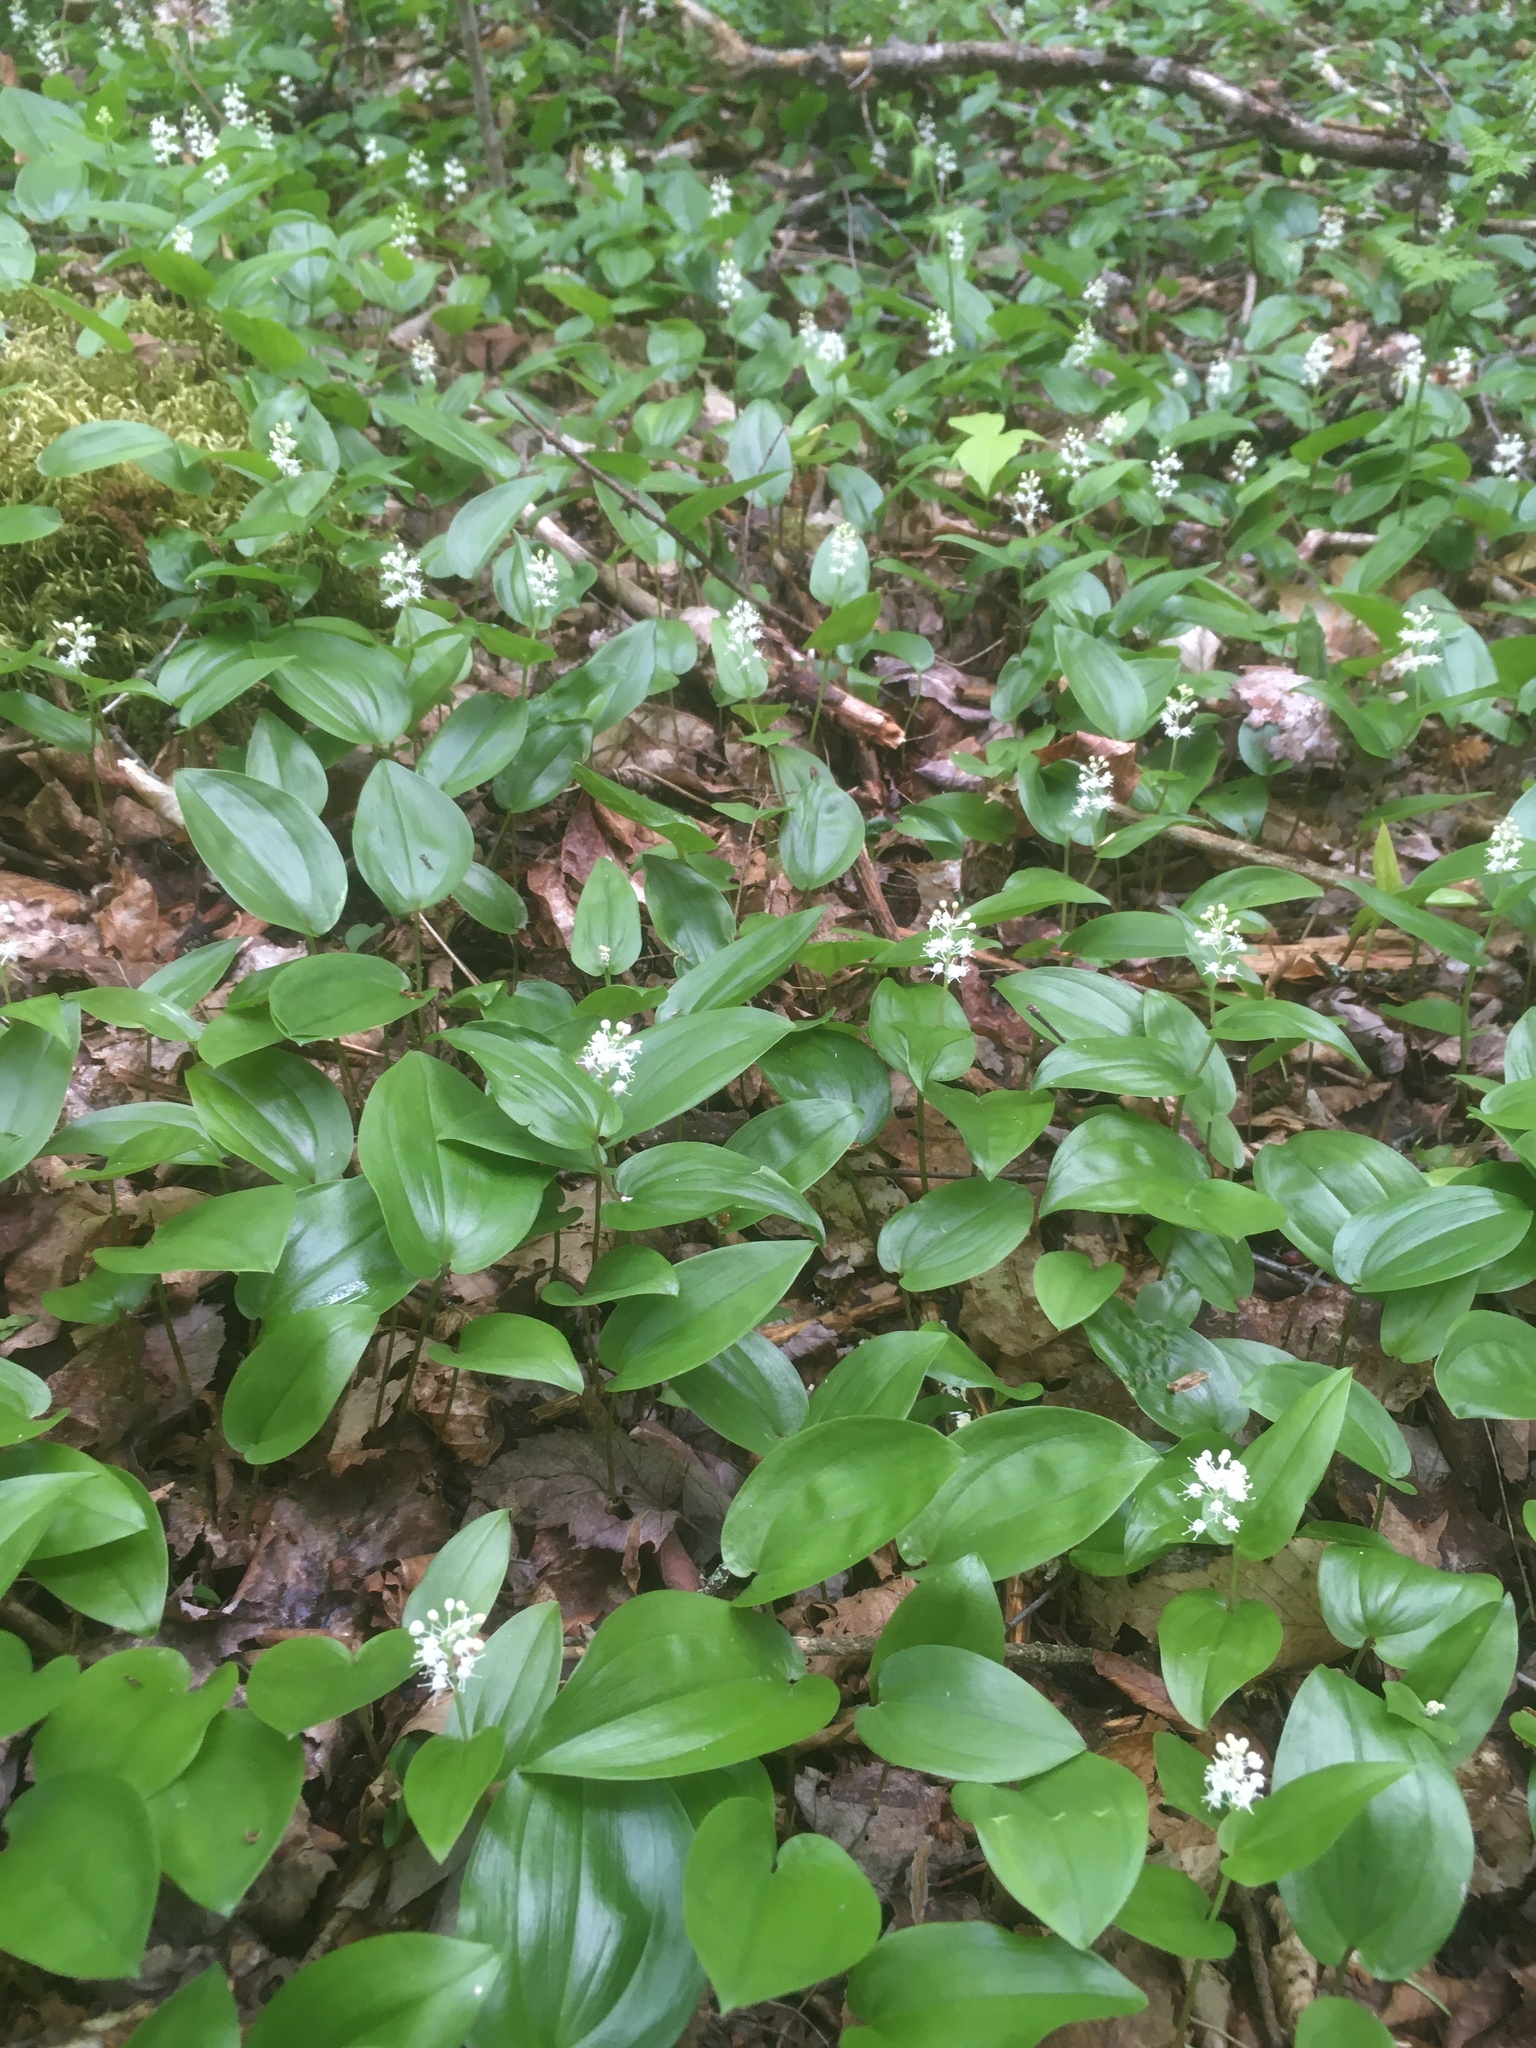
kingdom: Plantae
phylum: Tracheophyta
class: Liliopsida
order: Asparagales
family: Asparagaceae
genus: Maianthemum
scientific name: Maianthemum canadense
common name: False lily-of-the-valley
